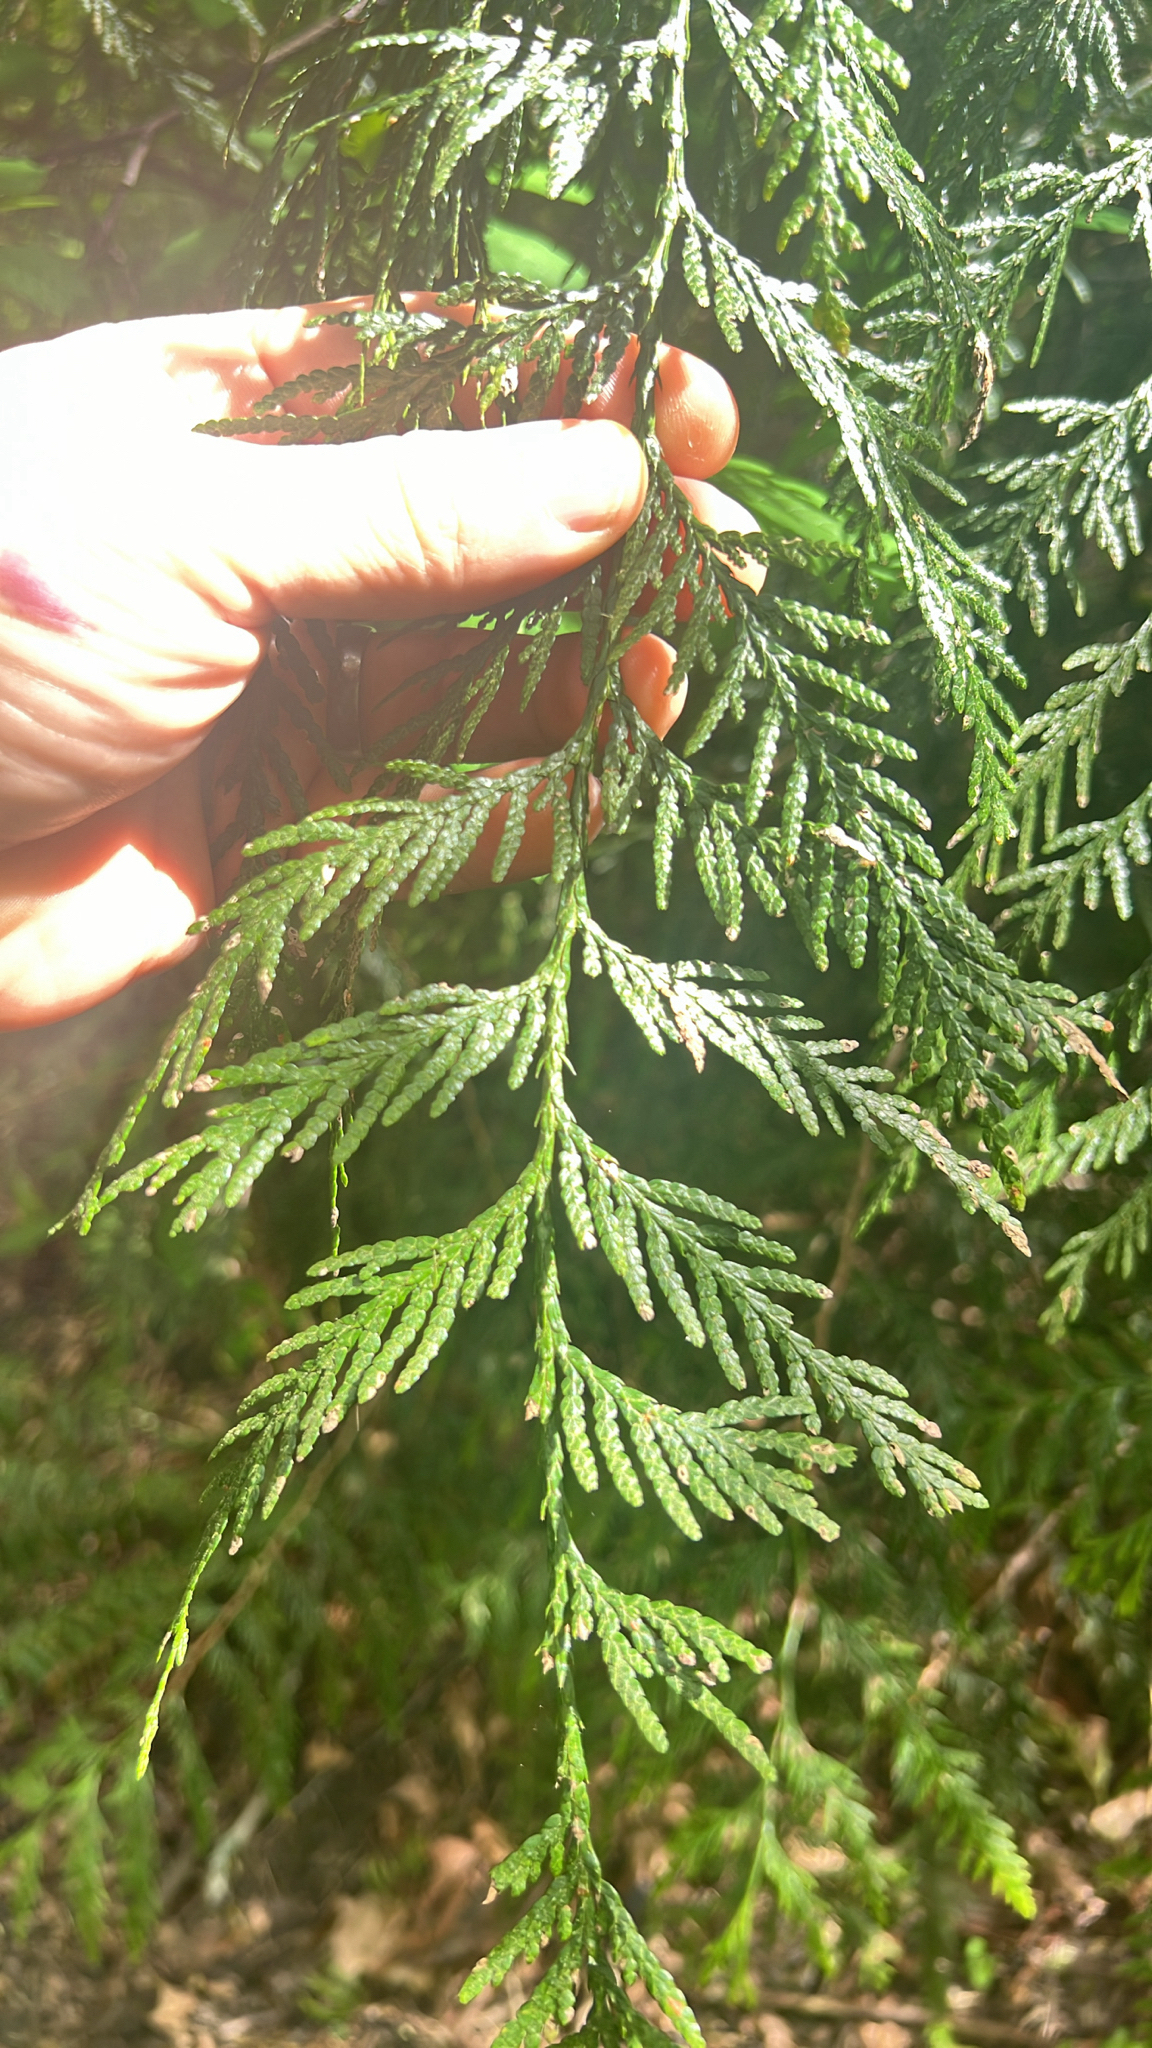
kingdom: Plantae
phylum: Tracheophyta
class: Pinopsida
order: Pinales
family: Cupressaceae
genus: Thuja
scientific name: Thuja plicata
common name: Western red-cedar
